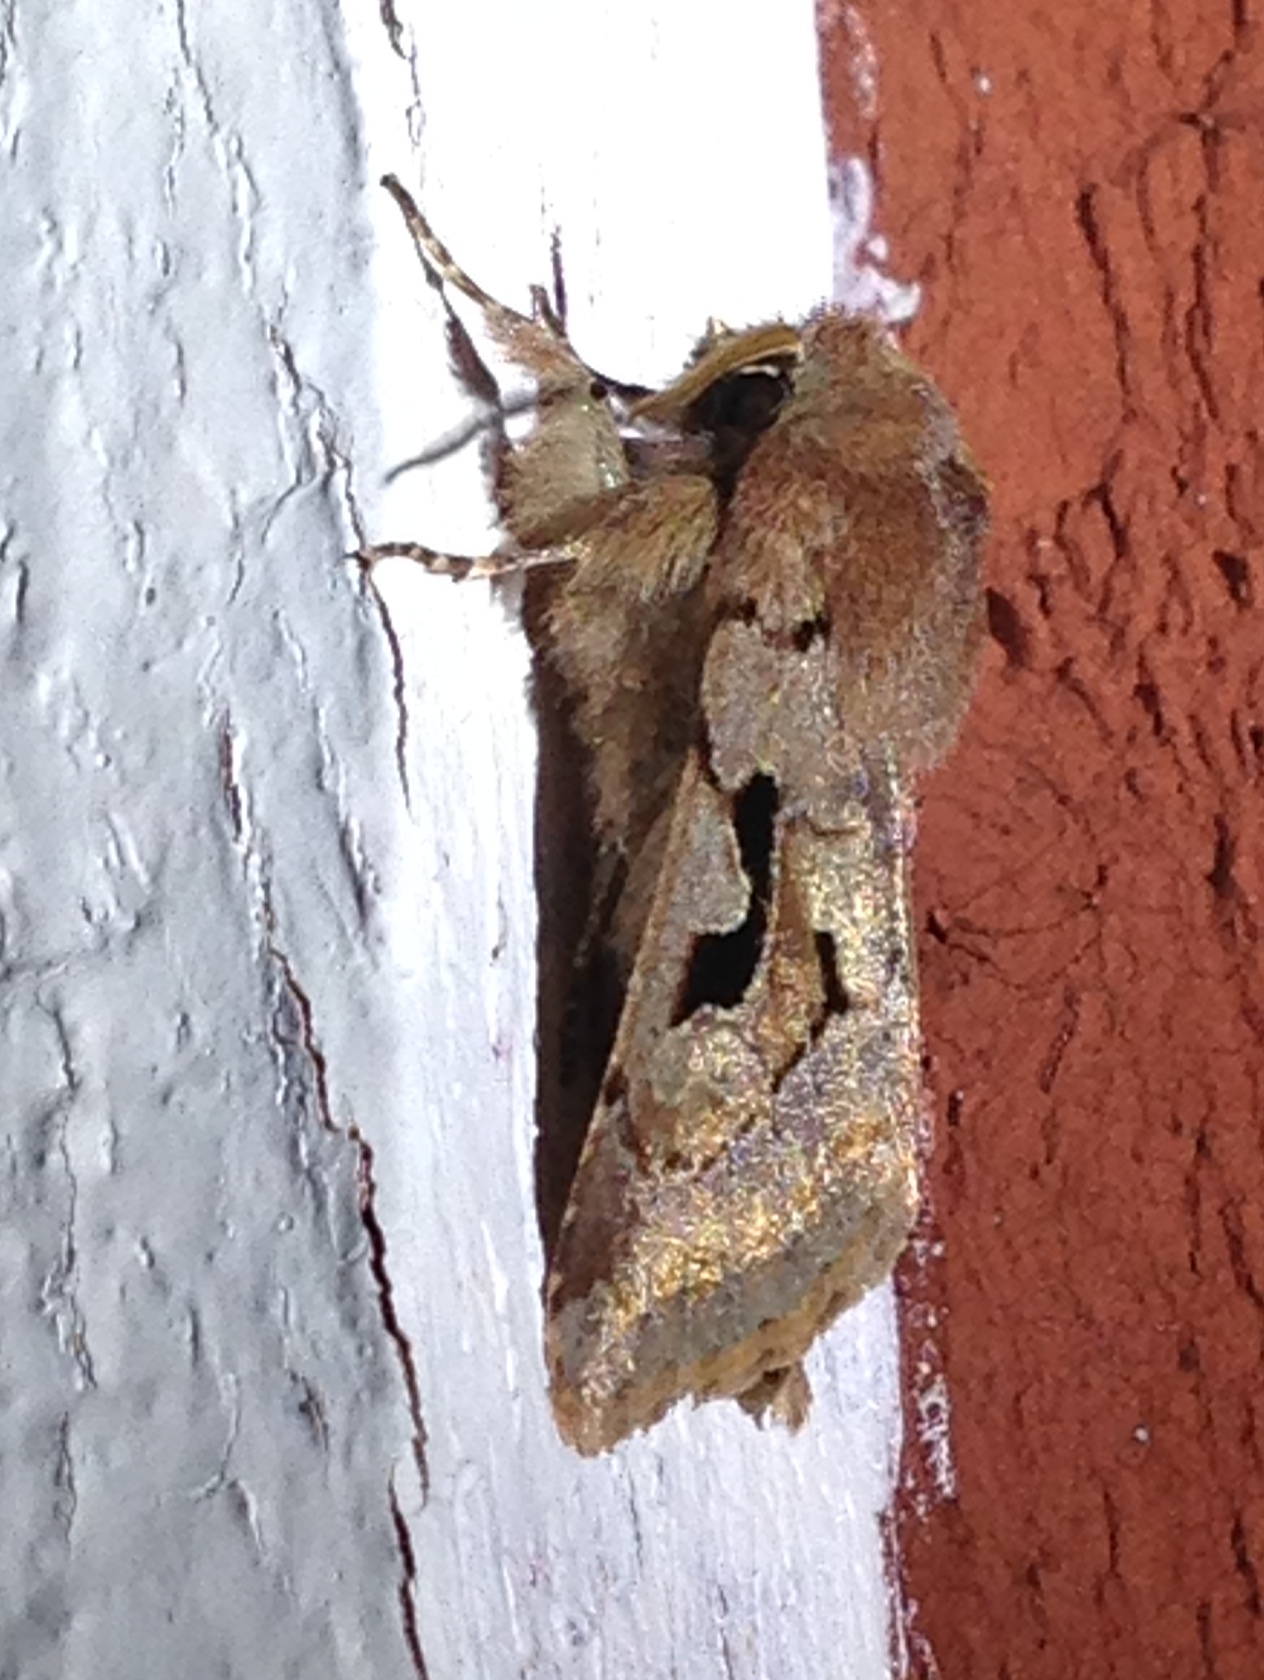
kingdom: Animalia
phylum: Arthropoda
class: Insecta
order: Lepidoptera
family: Noctuidae
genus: Orthosia
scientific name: Orthosia gothica
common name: Hebrew character
